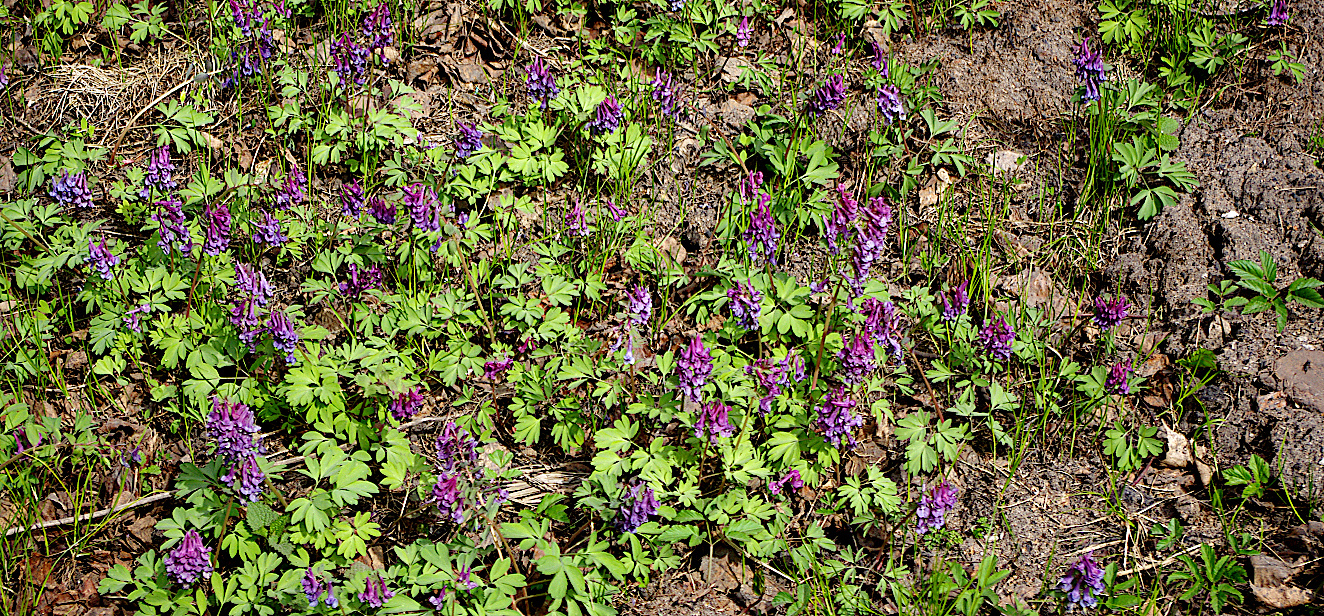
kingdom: Plantae
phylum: Tracheophyta
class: Magnoliopsida
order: Ranunculales
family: Papaveraceae
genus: Corydalis
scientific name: Corydalis solida
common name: Bird-in-a-bush
